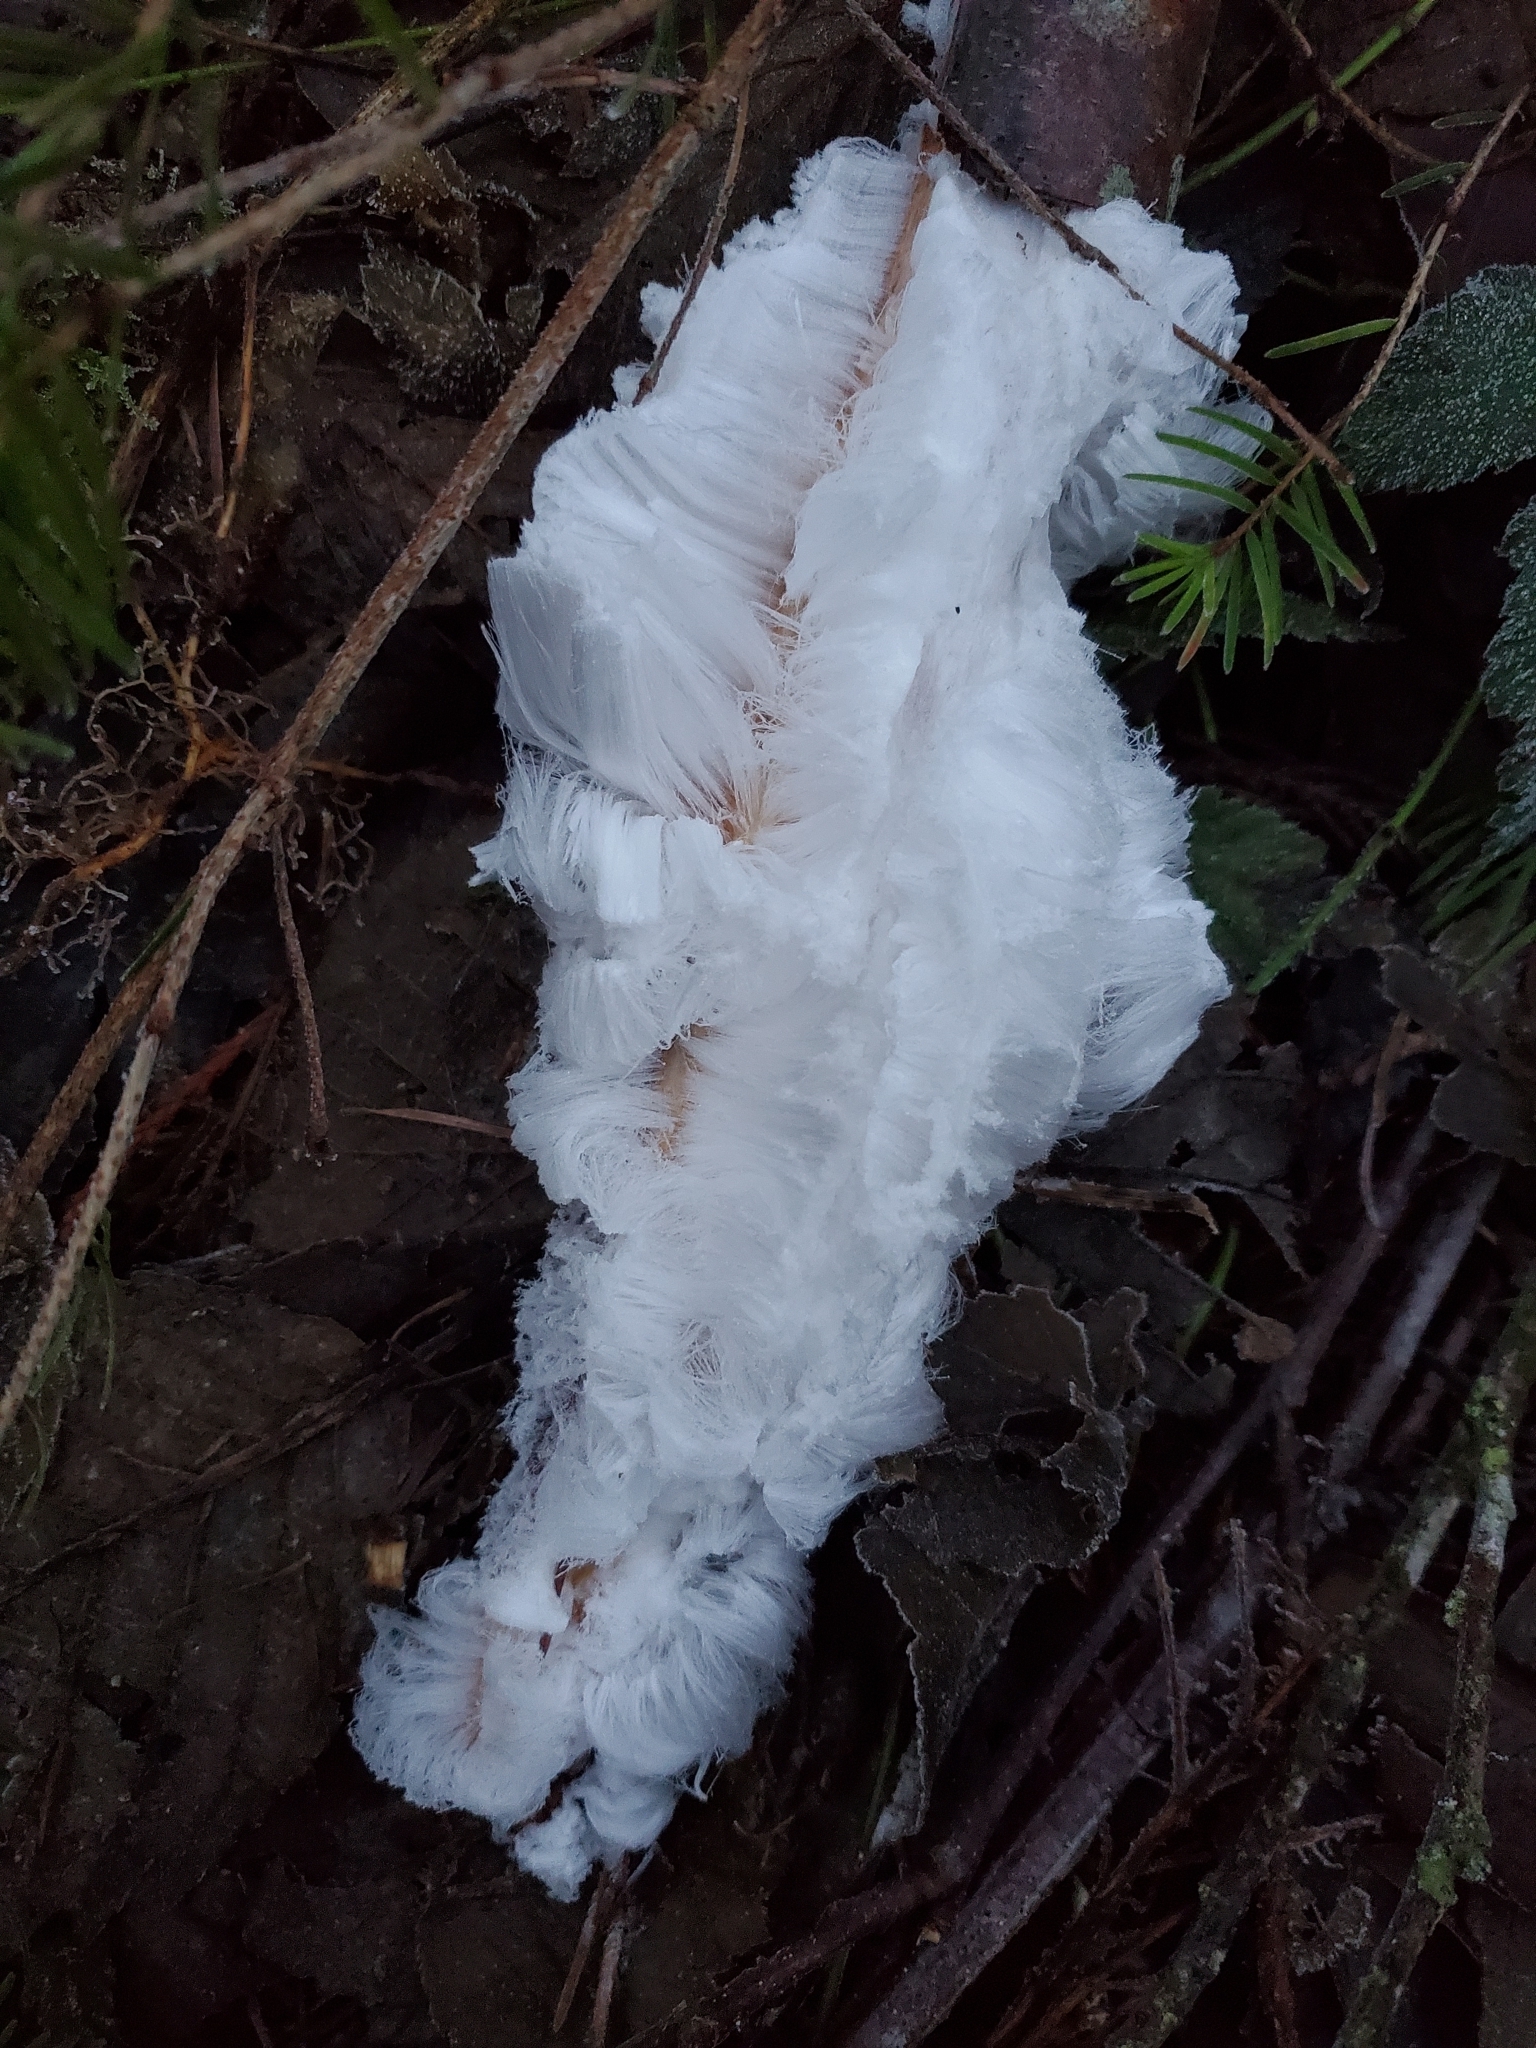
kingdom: Fungi
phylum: Basidiomycota
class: Agaricomycetes
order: Auriculariales
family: Auriculariaceae
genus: Exidiopsis
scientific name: Exidiopsis effusa
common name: Hair ice crust
